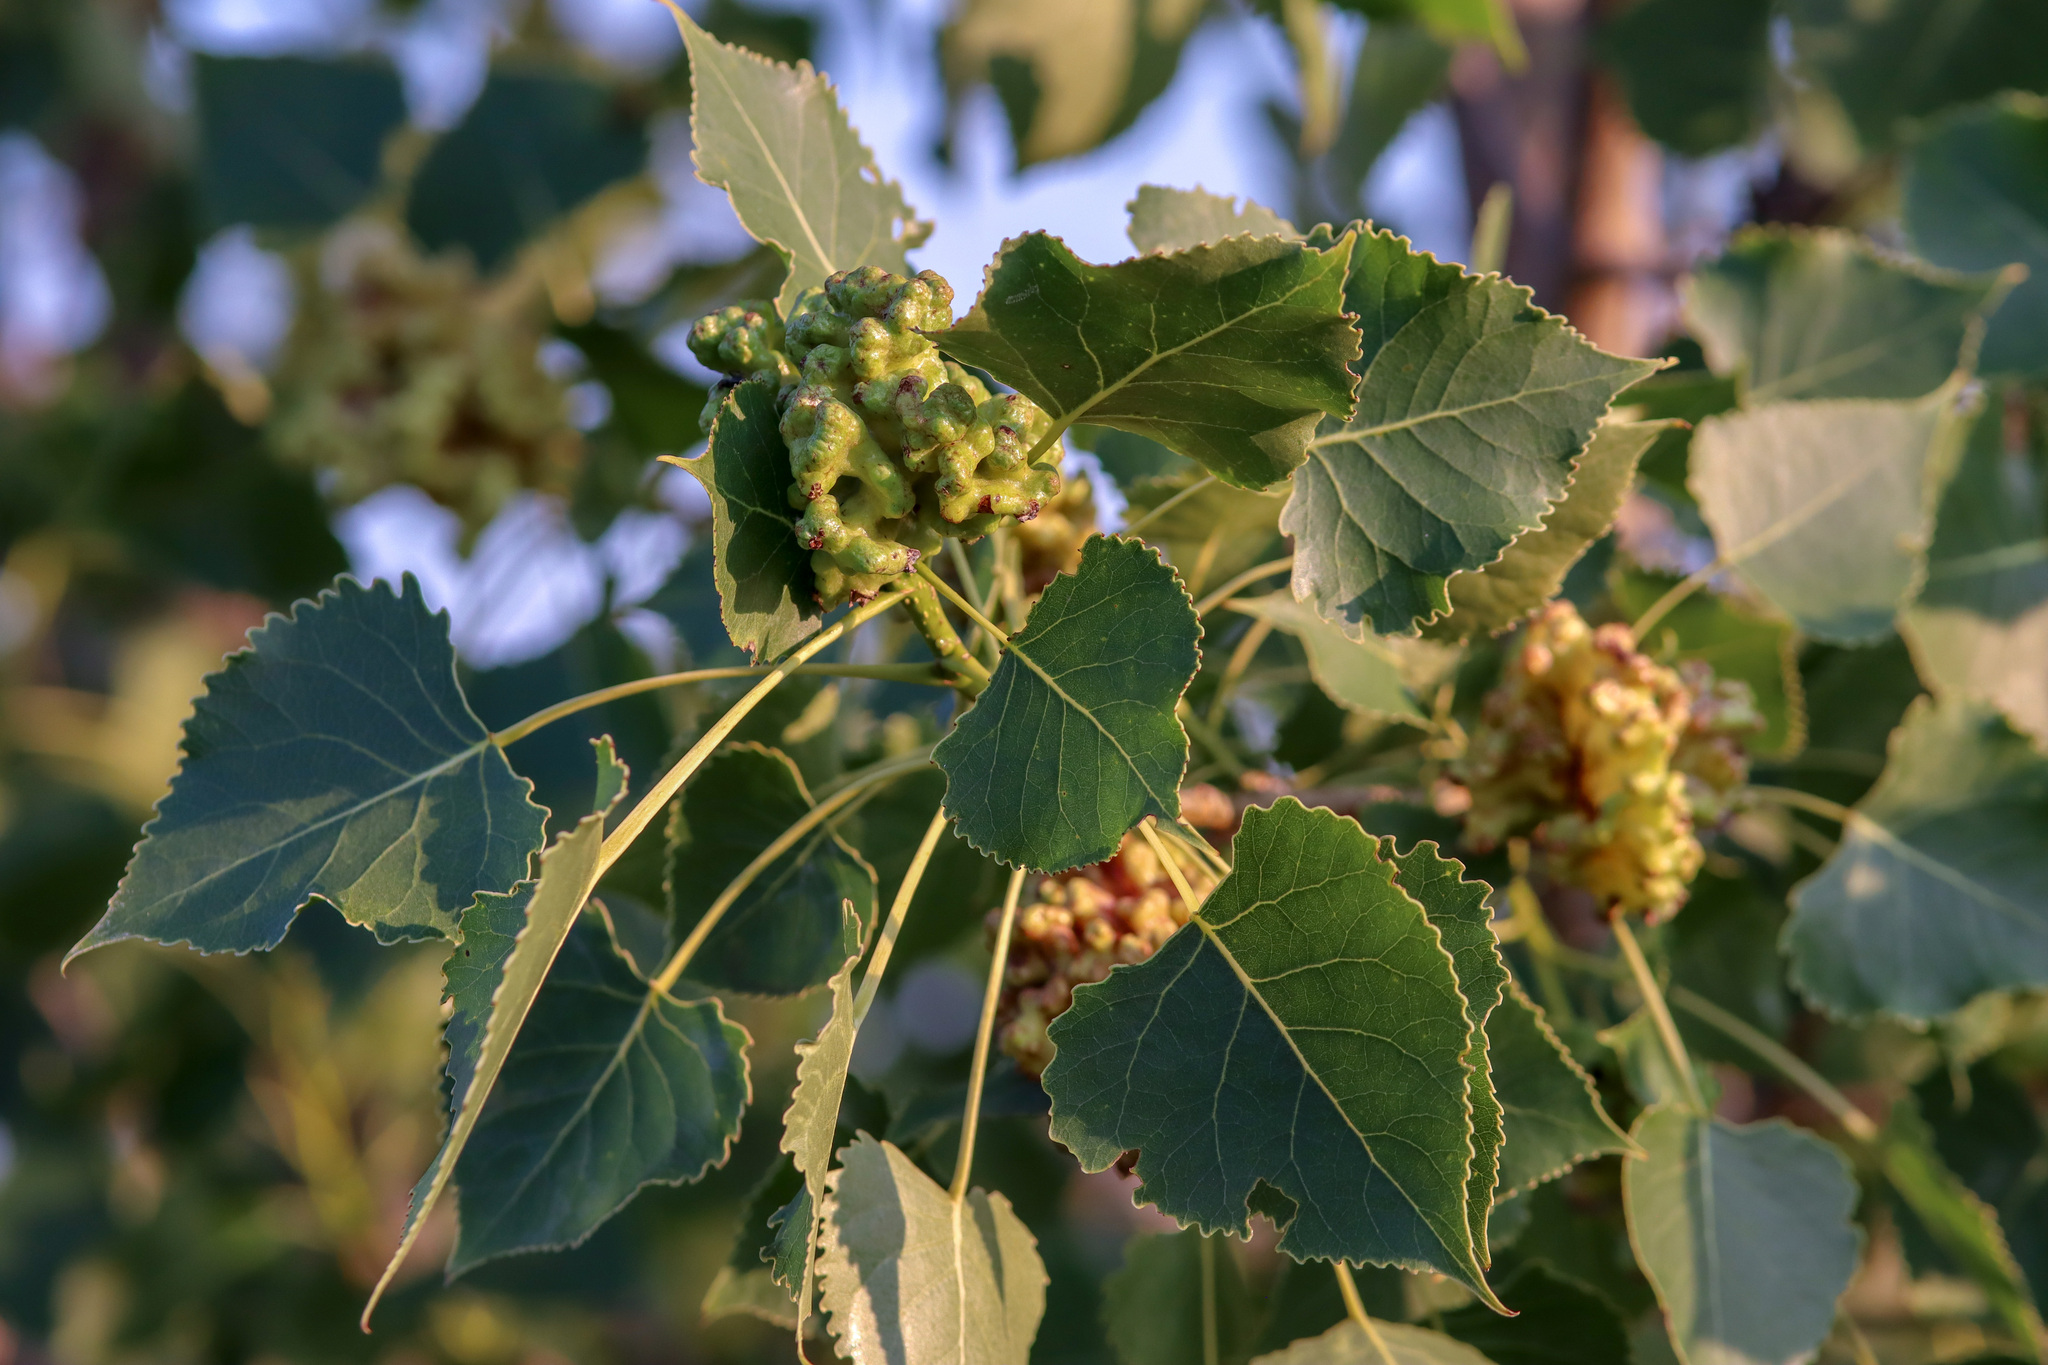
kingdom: Plantae
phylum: Tracheophyta
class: Magnoliopsida
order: Malpighiales
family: Salicaceae
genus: Populus
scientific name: Populus deltoides
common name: Eastern cottonwood
